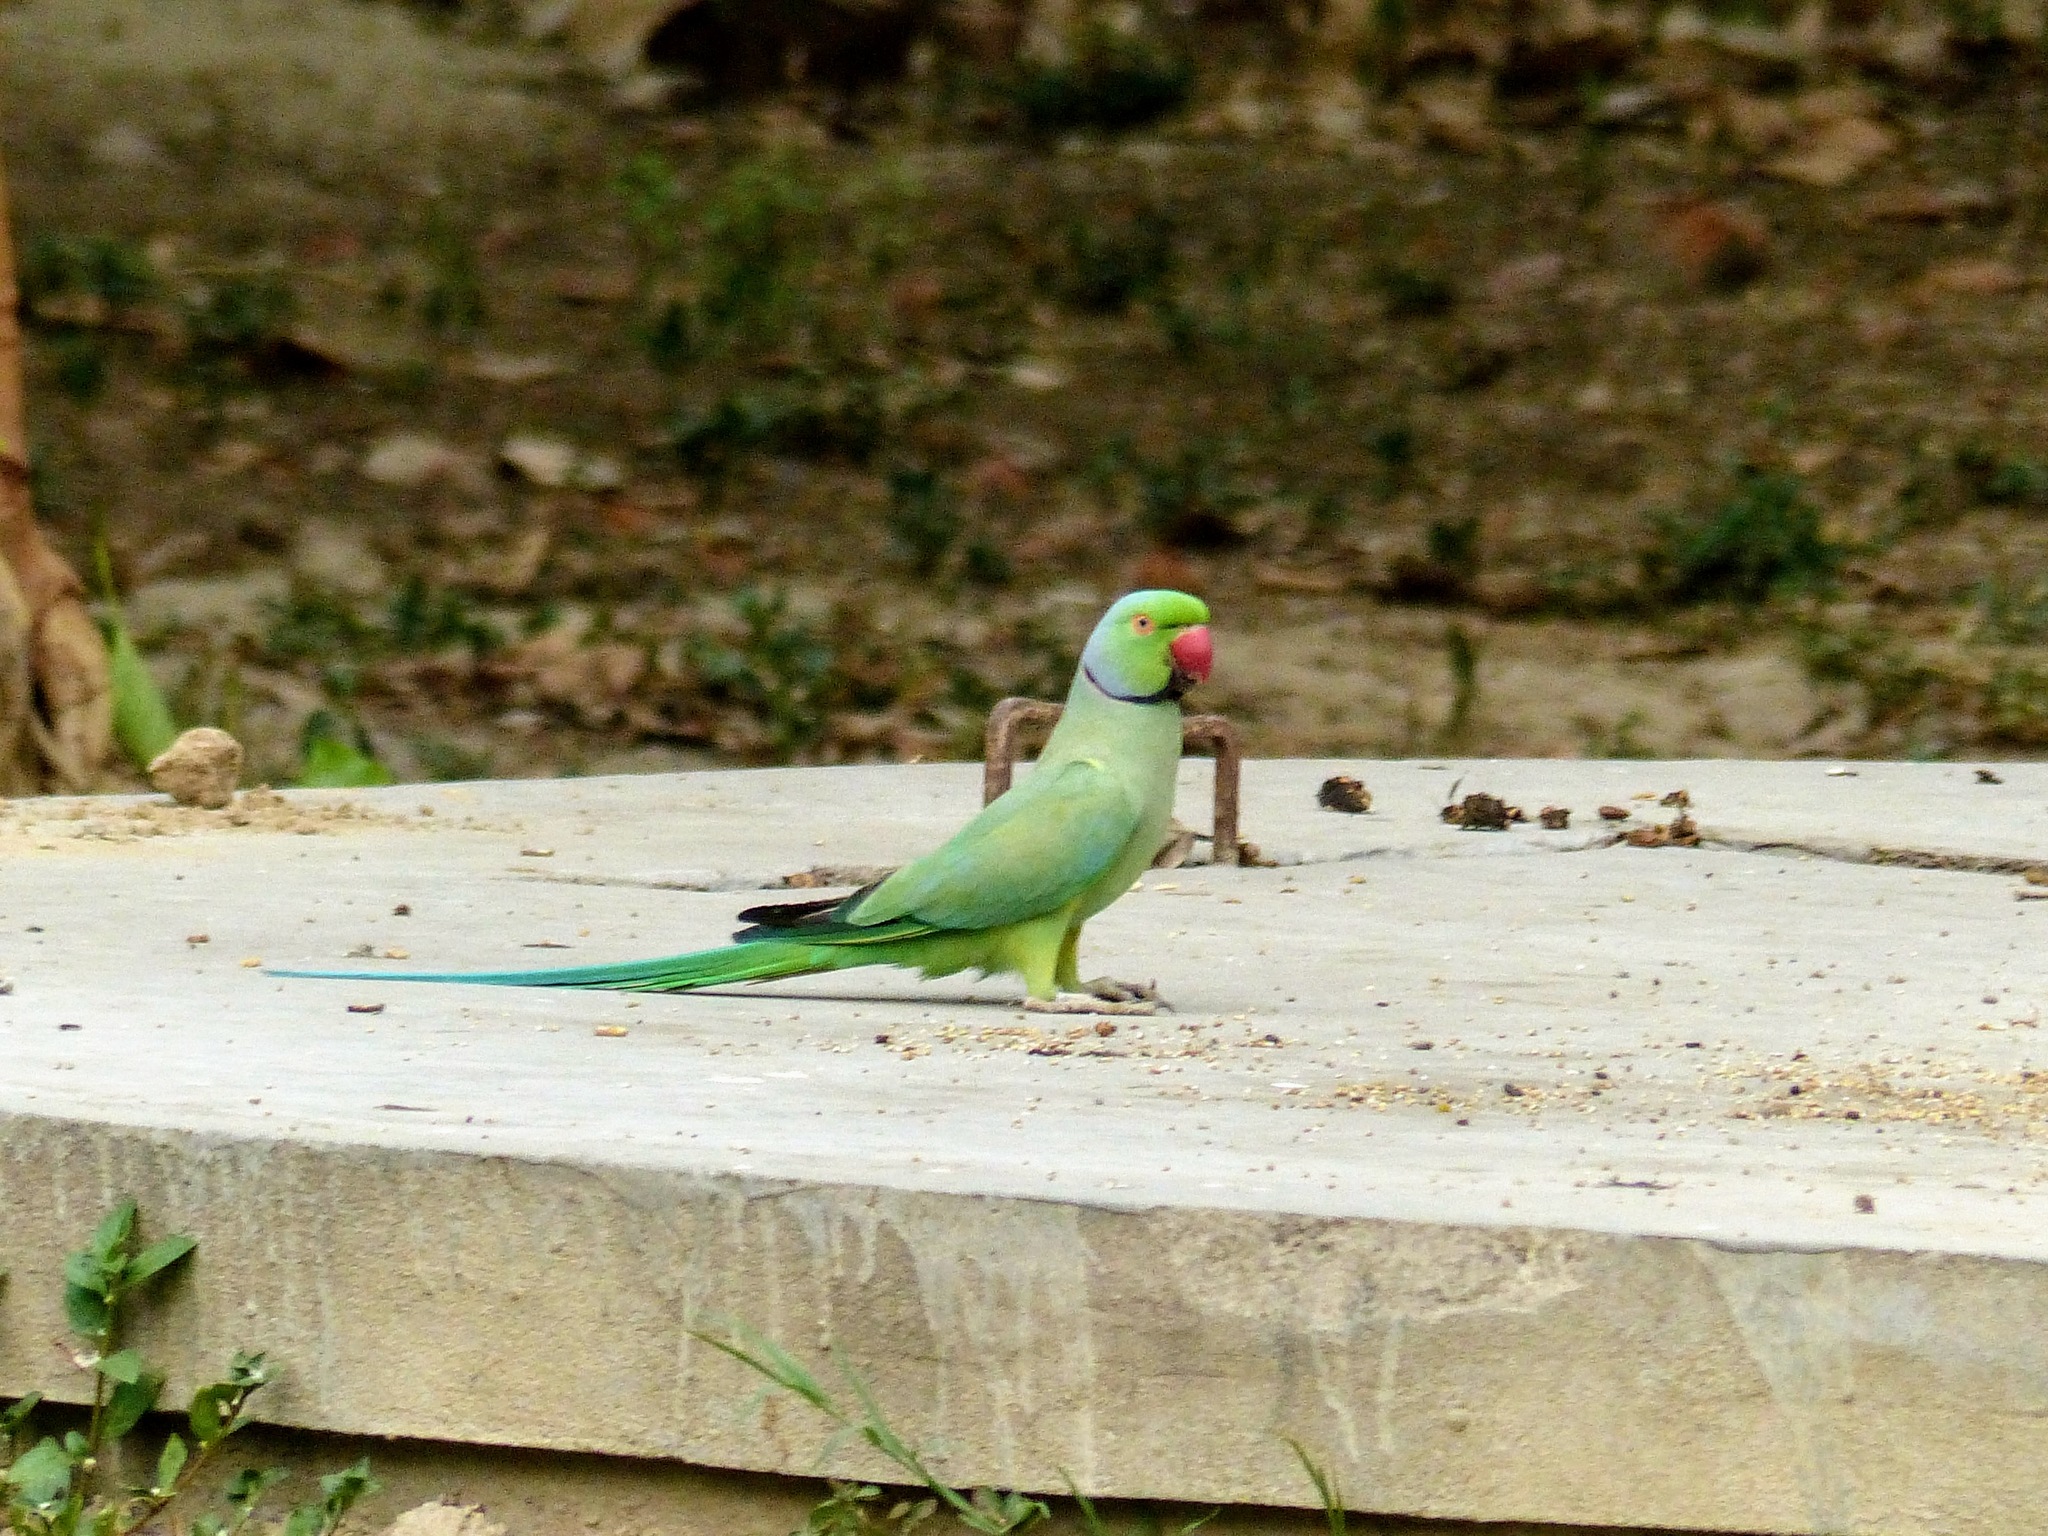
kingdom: Animalia
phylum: Chordata
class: Aves
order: Psittaciformes
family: Psittacidae
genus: Psittacula
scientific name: Psittacula krameri
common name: Rose-ringed parakeet
